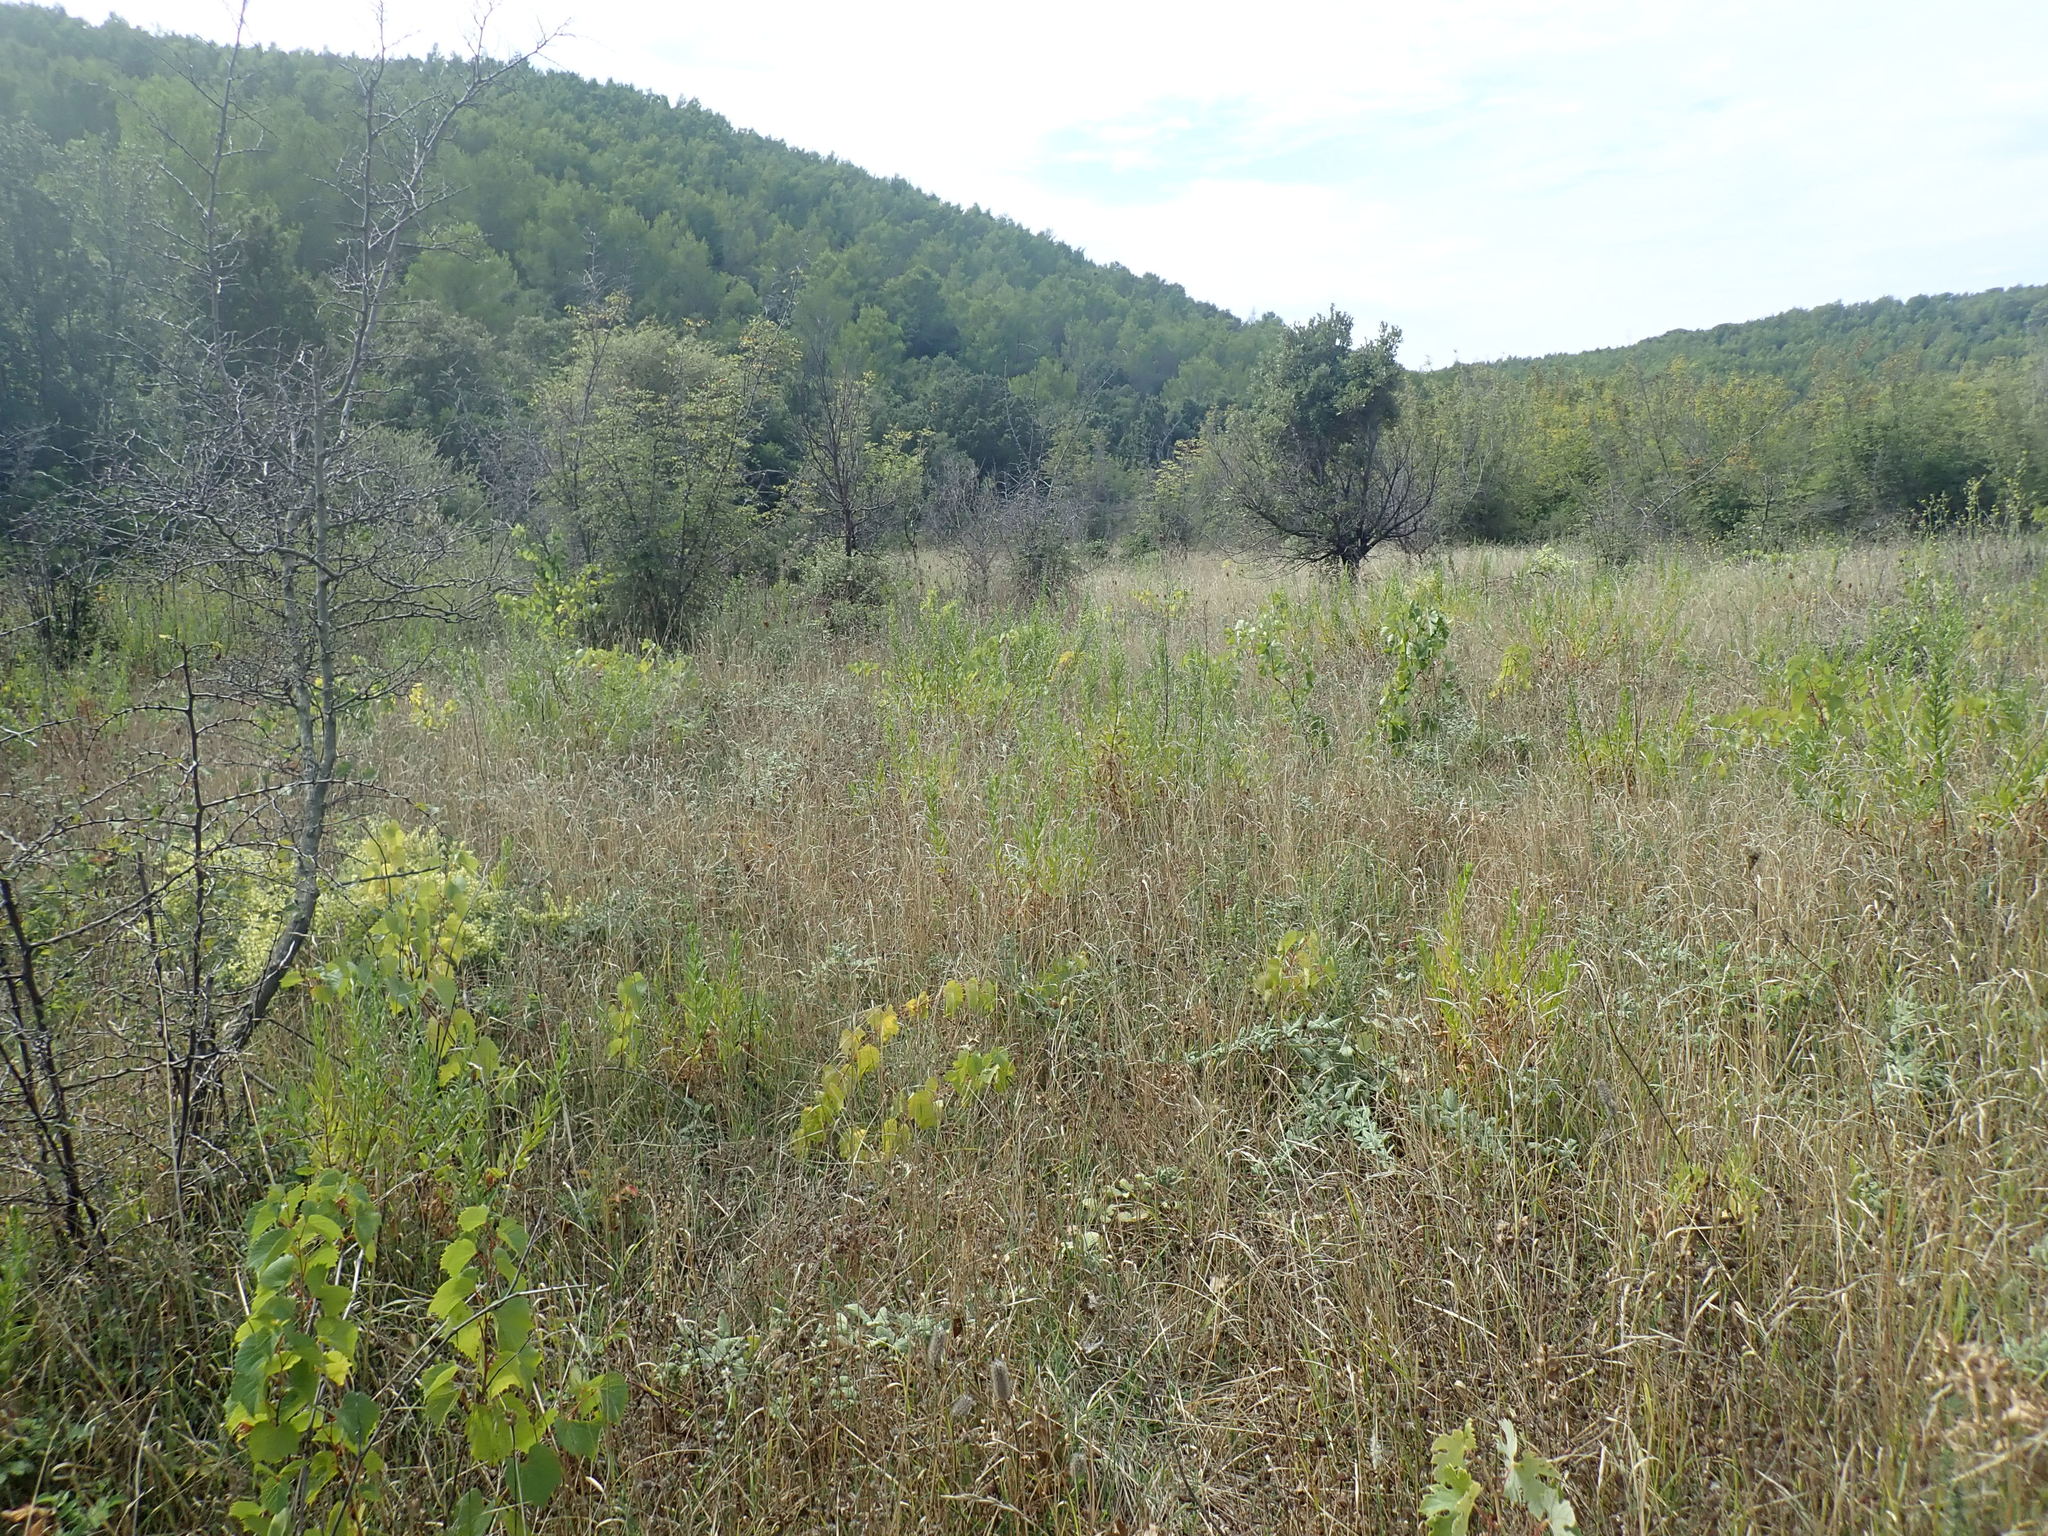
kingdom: Plantae
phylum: Tracheophyta
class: Magnoliopsida
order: Vitales
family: Vitaceae
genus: Vitis
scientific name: Vitis vinifera
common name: Grape-vine
